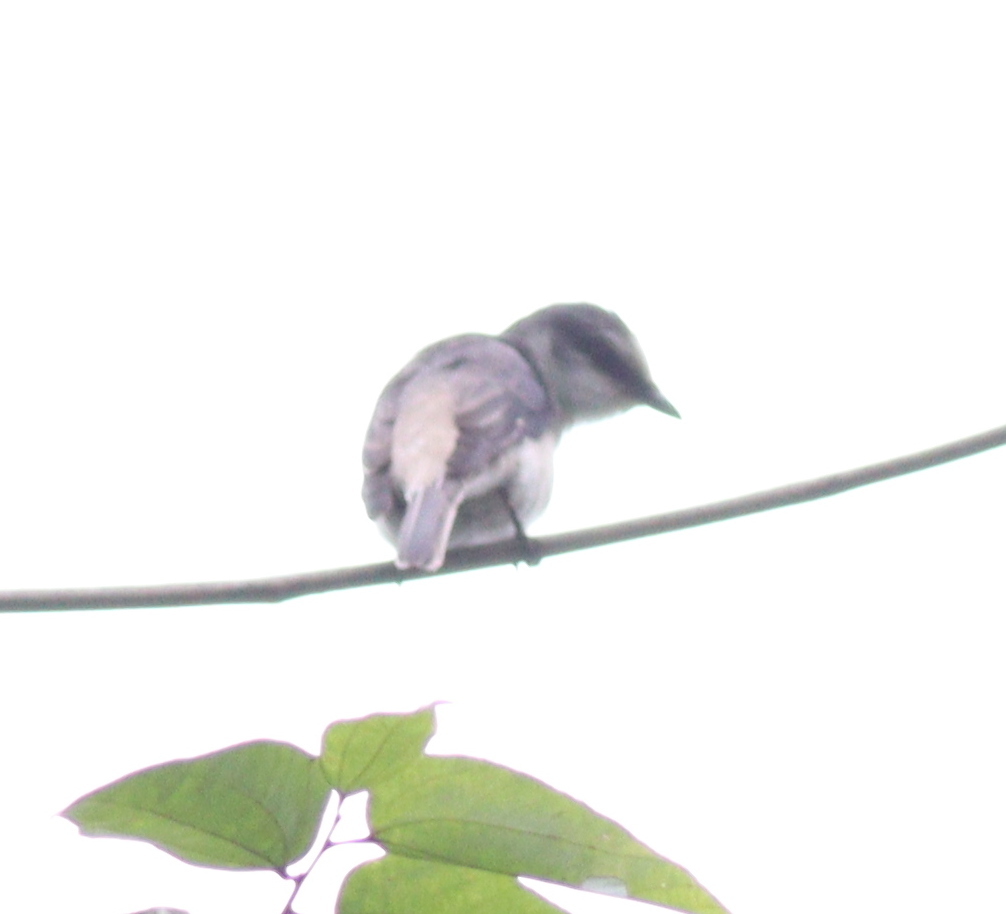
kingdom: Animalia
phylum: Chordata
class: Aves
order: Passeriformes
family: Campephagidae
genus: Pericrocotus
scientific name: Pericrocotus cantonensis
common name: Swinhoe's minivet
